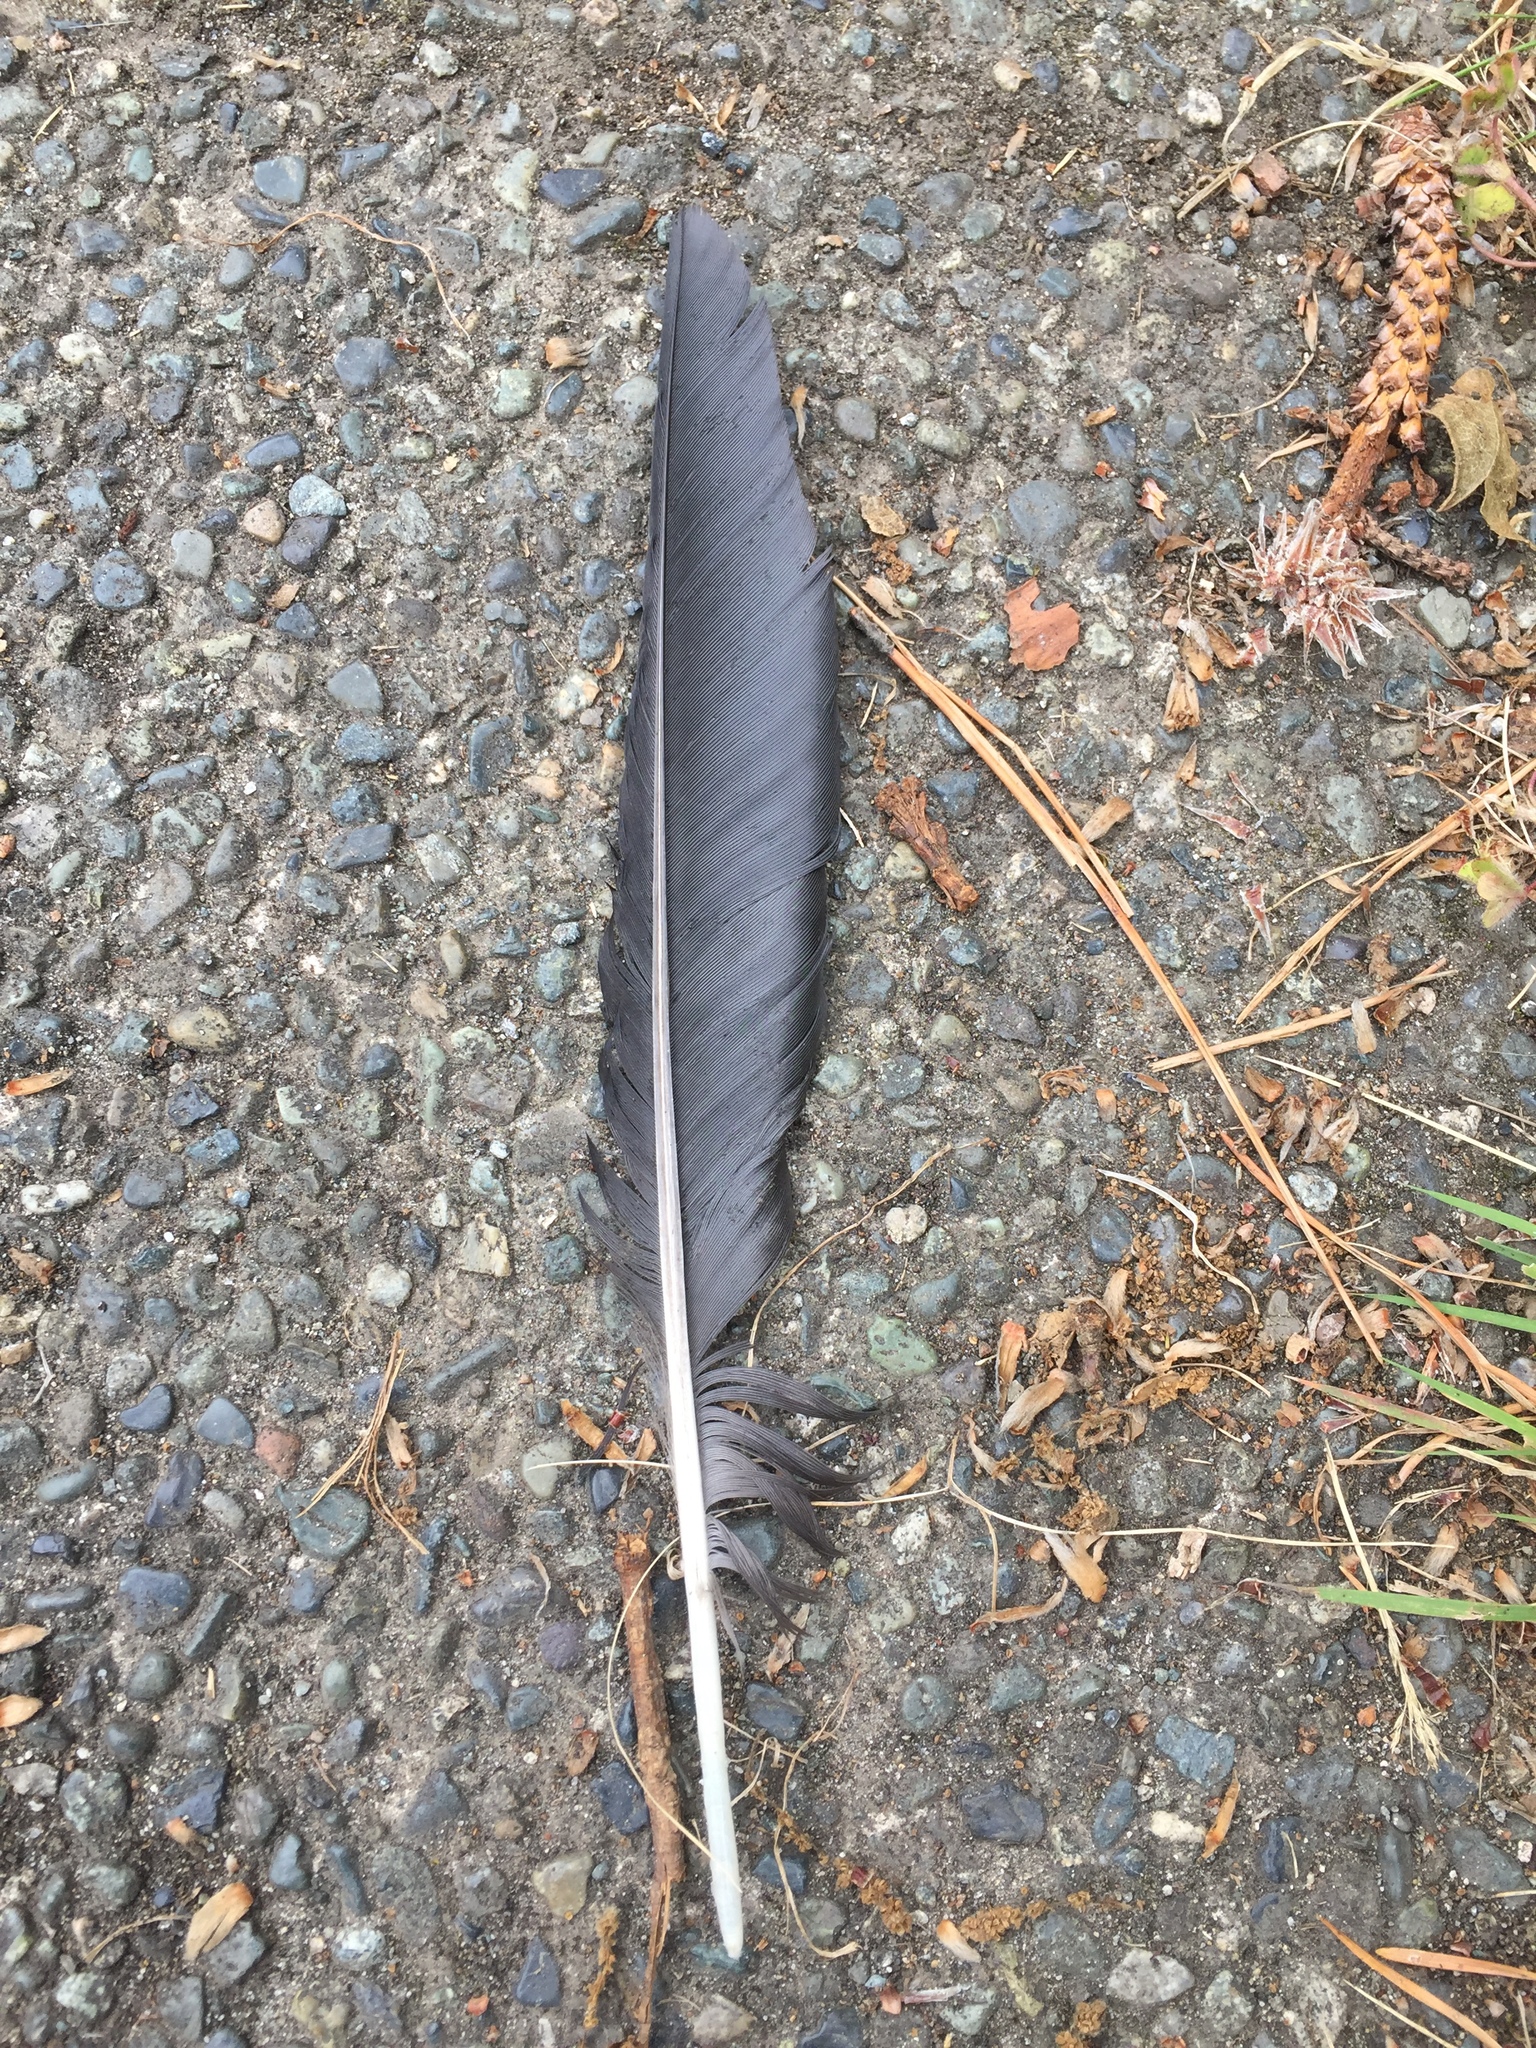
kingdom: Animalia
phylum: Chordata
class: Aves
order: Passeriformes
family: Corvidae
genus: Corvus
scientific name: Corvus brachyrhynchos
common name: American crow
